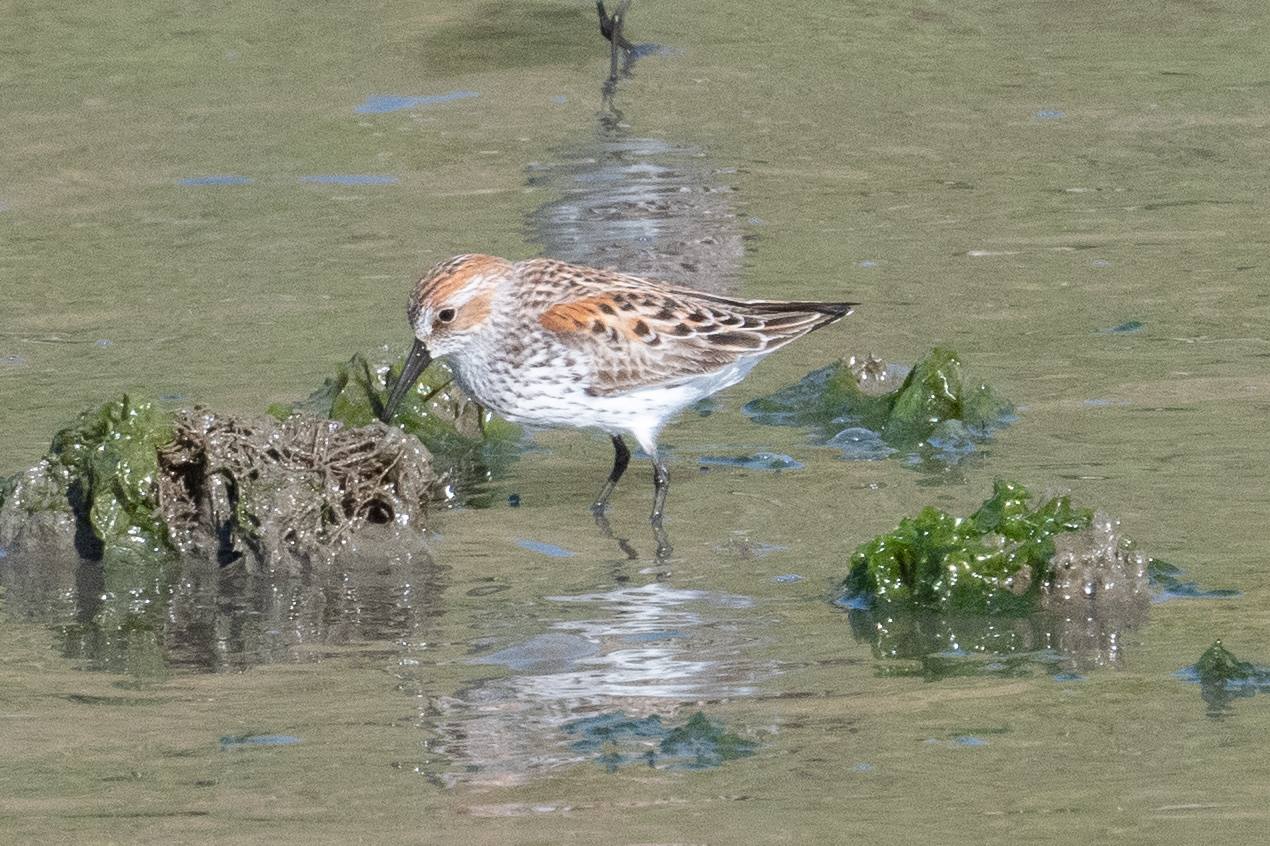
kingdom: Animalia
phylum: Chordata
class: Aves
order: Charadriiformes
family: Scolopacidae
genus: Calidris
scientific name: Calidris mauri
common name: Western sandpiper
